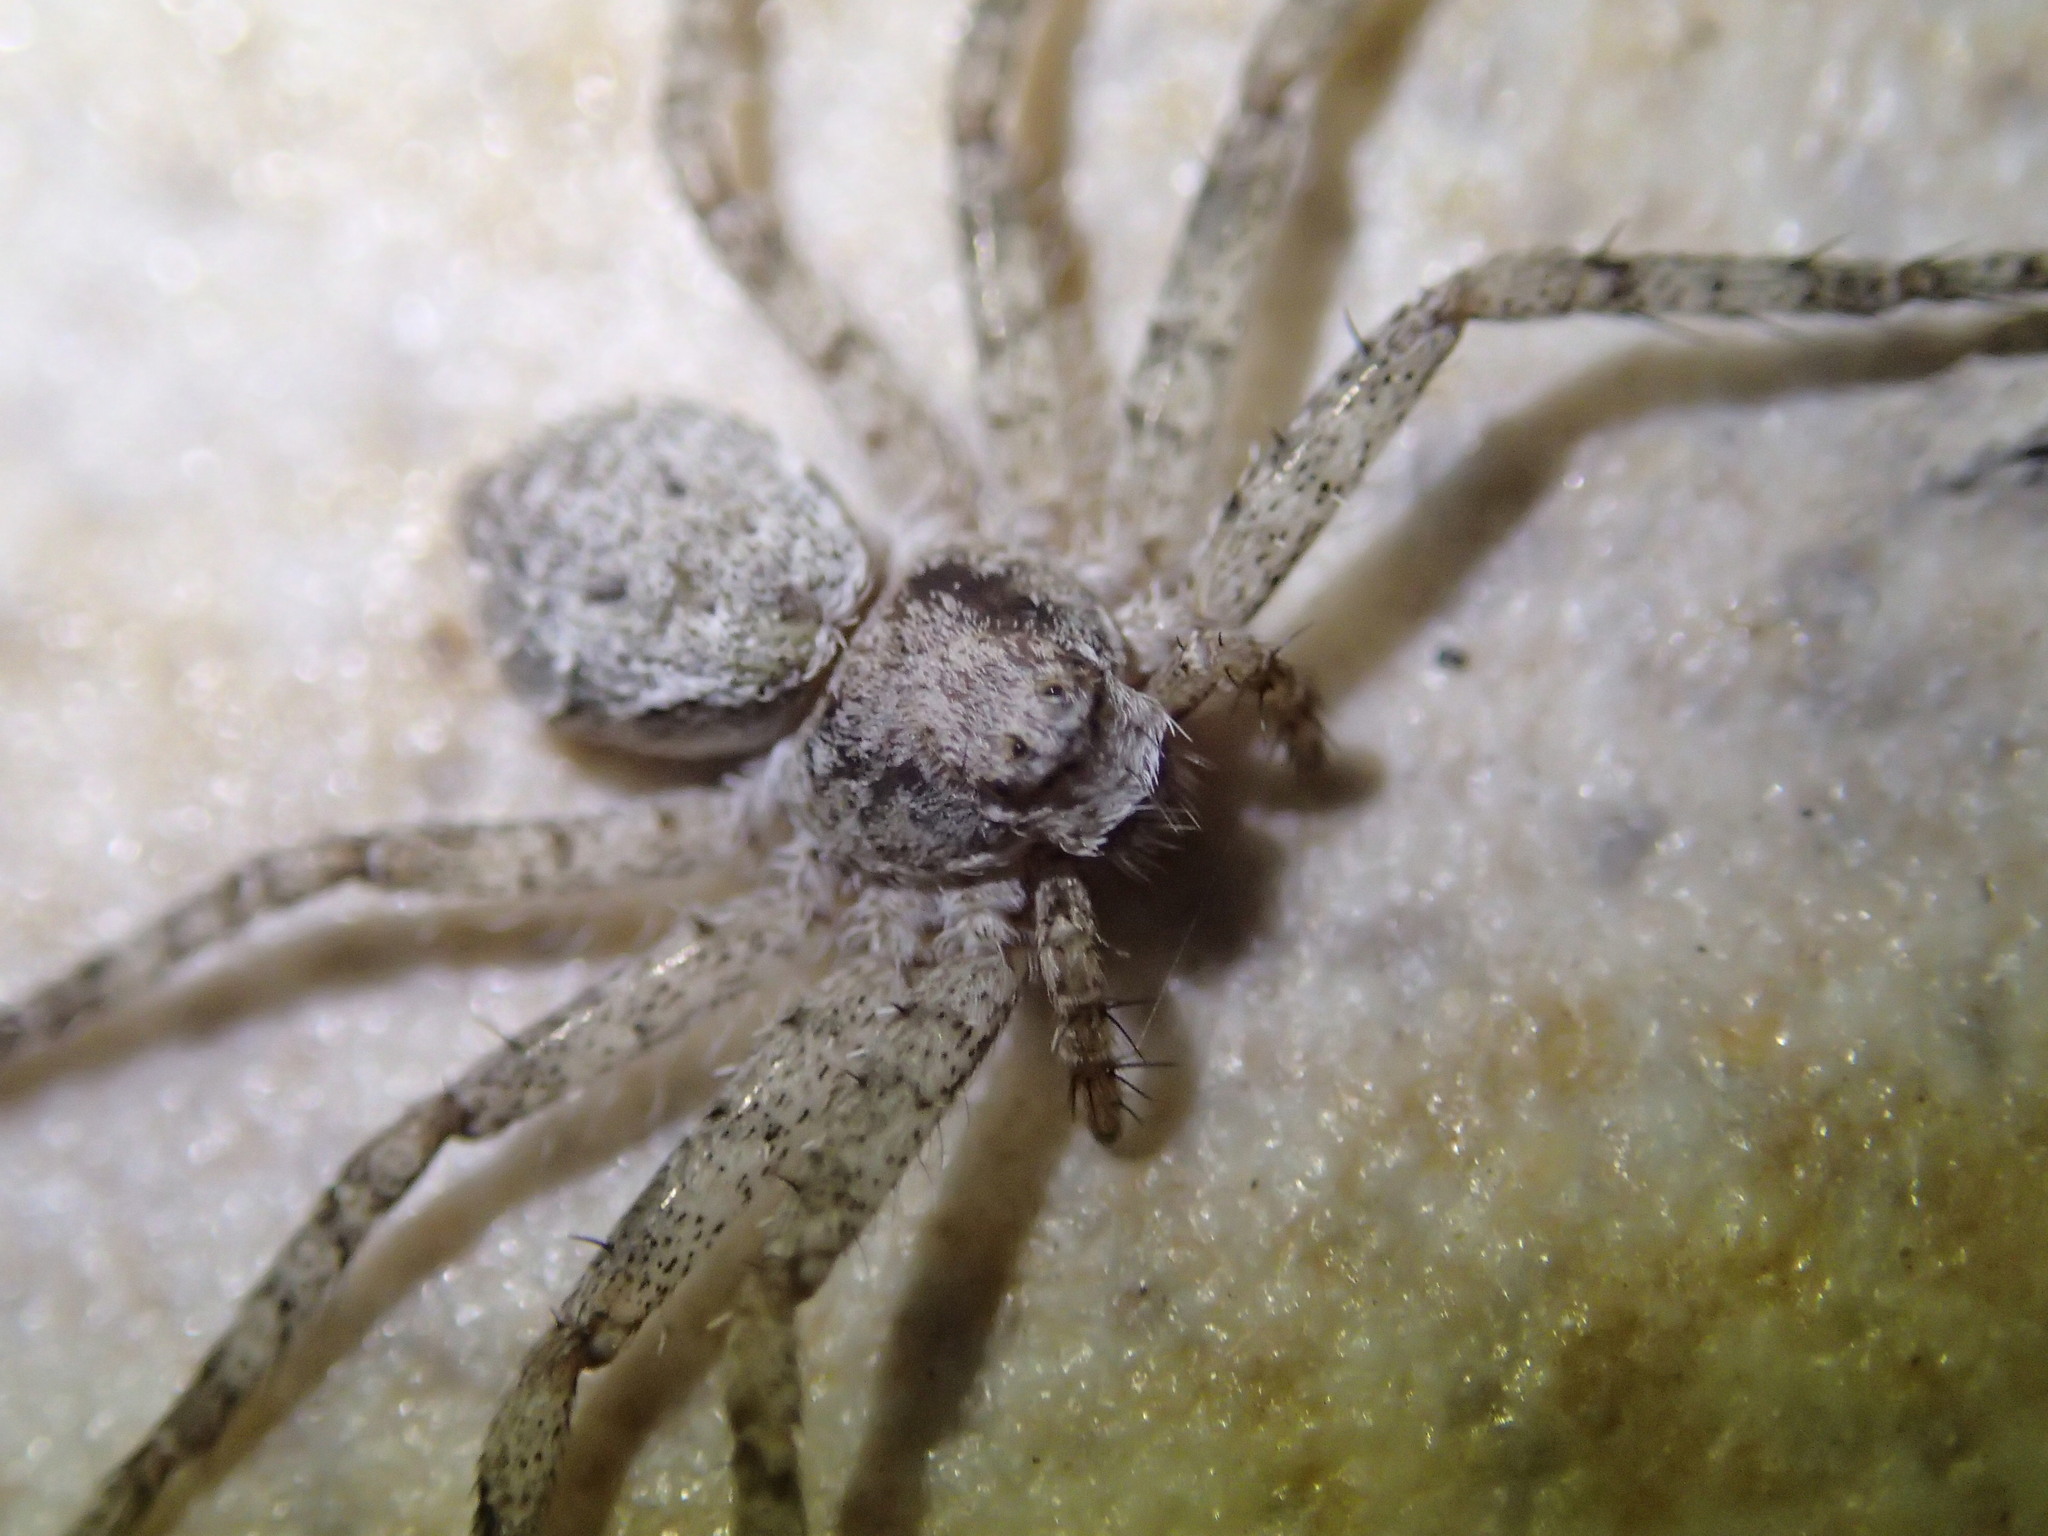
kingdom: Animalia
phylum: Arthropoda
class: Arachnida
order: Araneae
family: Philodromidae
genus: Philodromus
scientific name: Philodromus emarginatus
